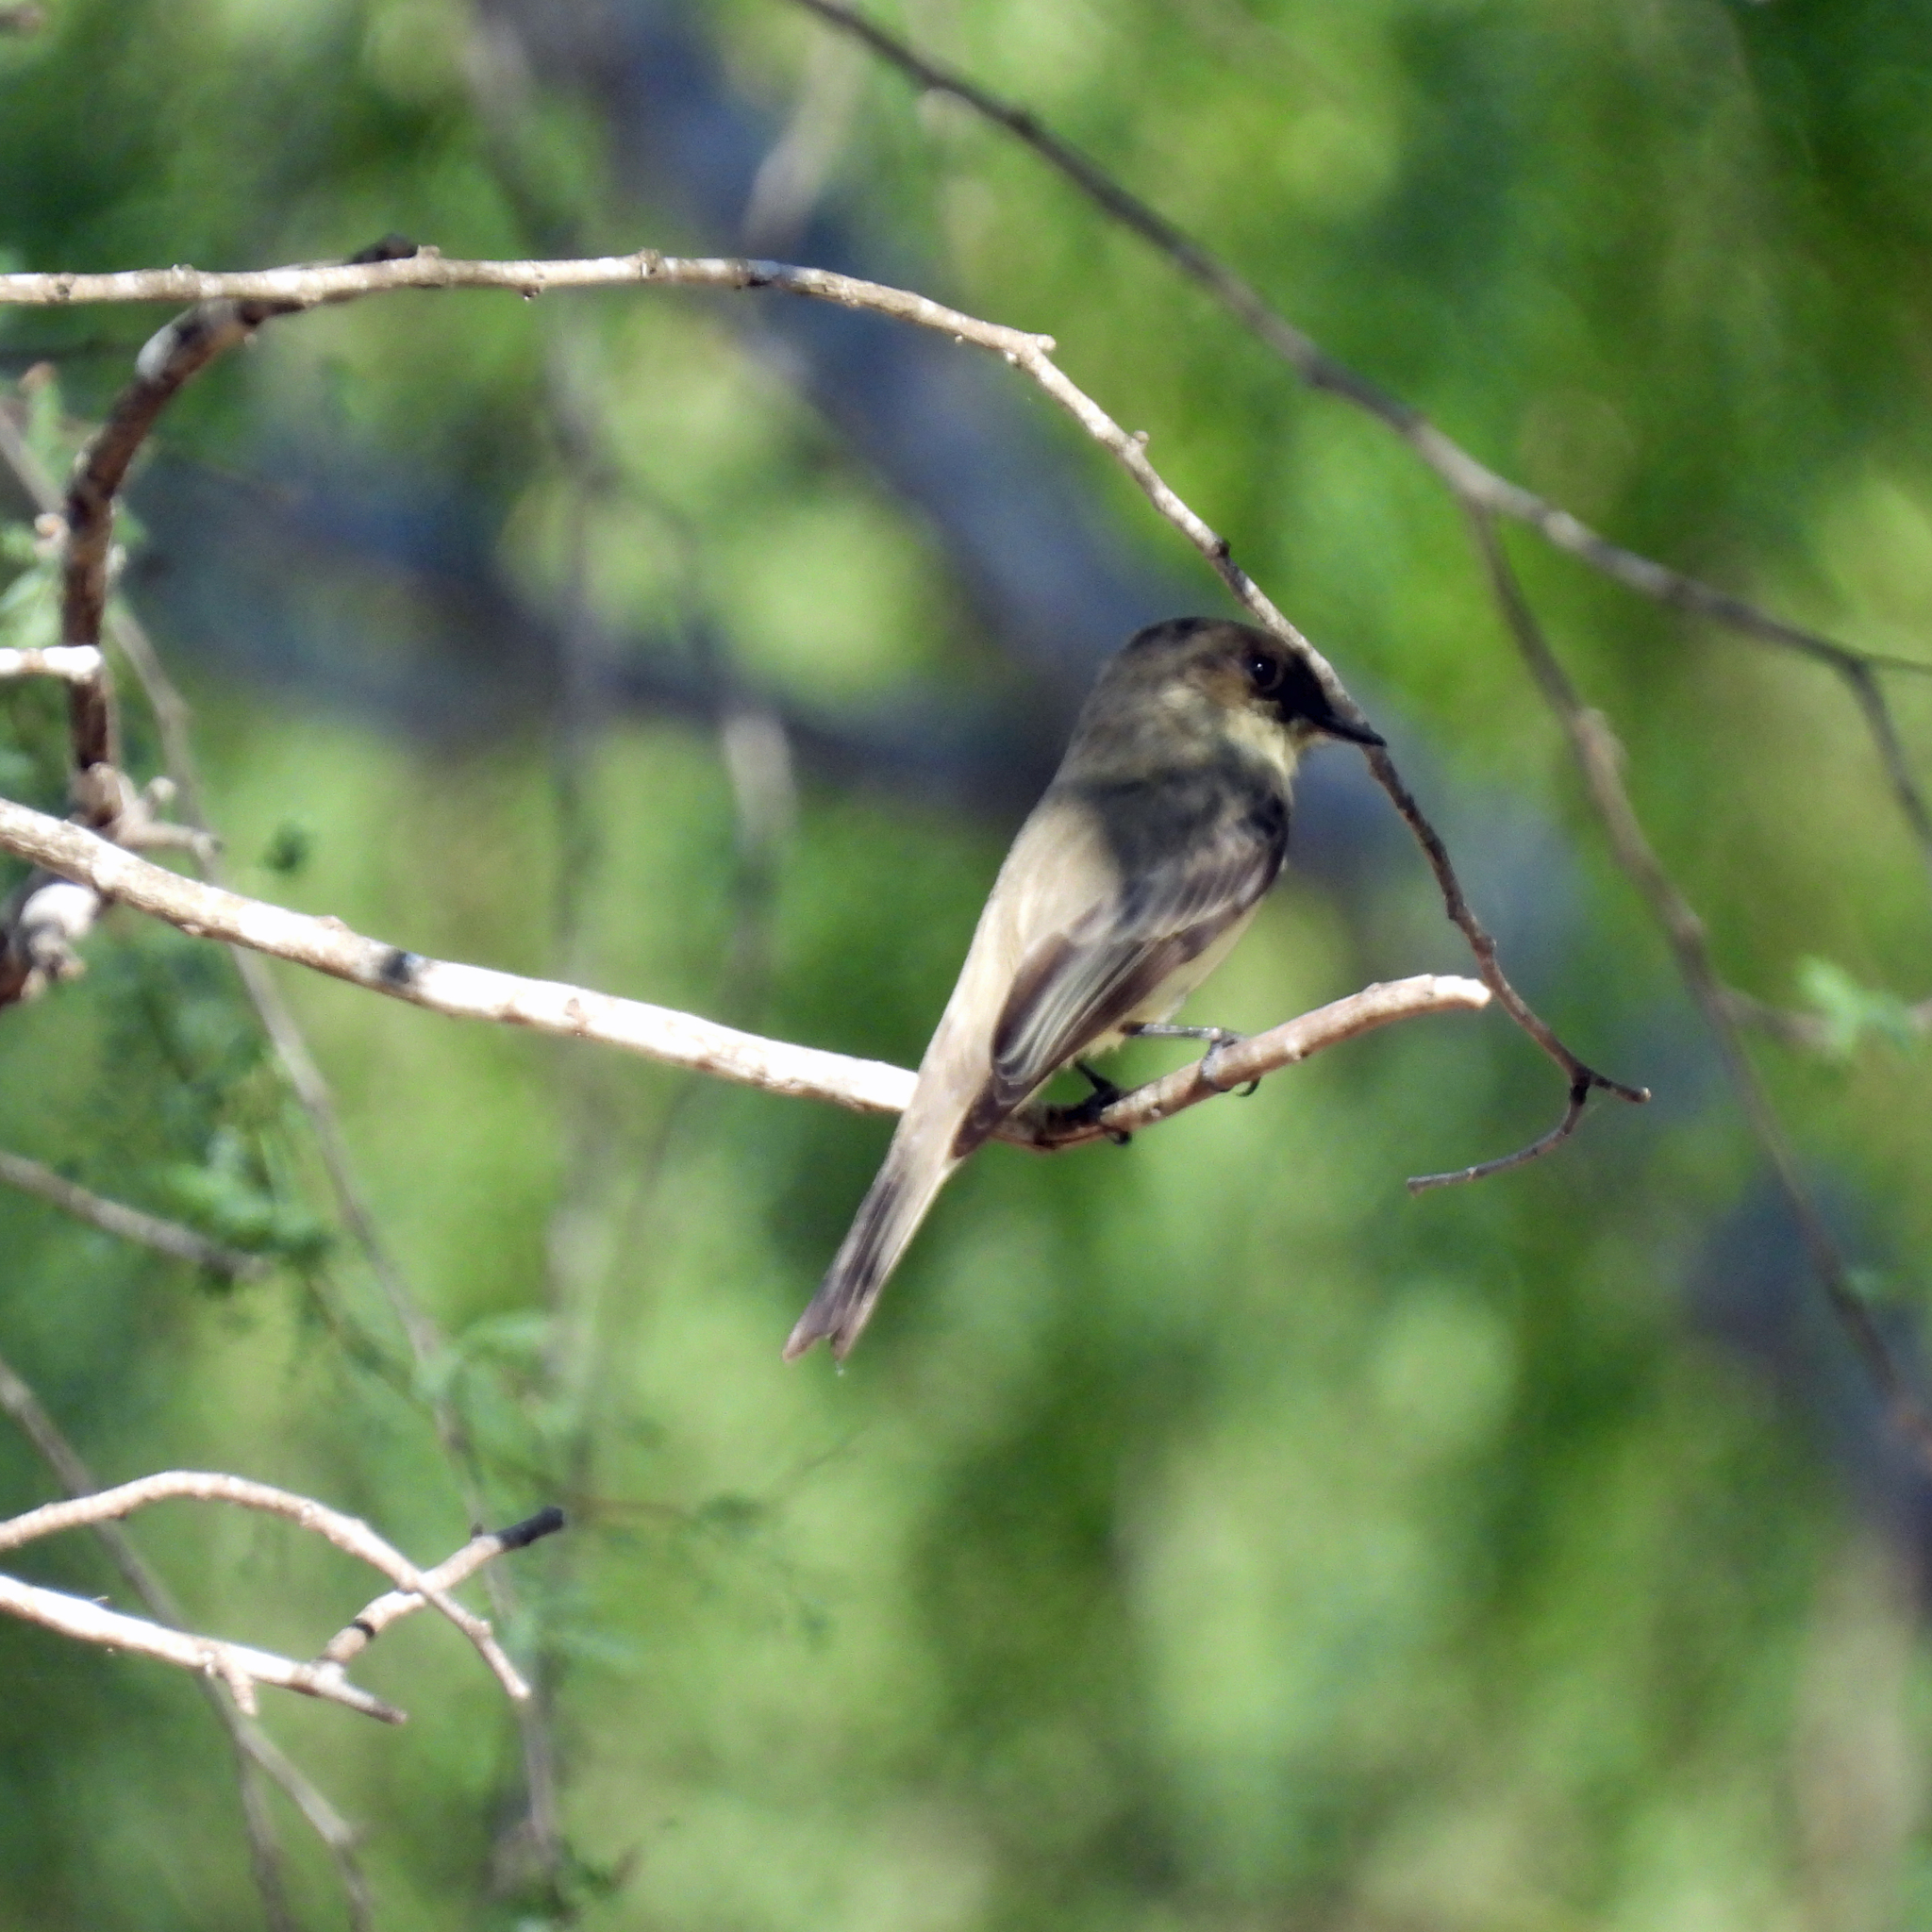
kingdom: Animalia
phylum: Chordata
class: Aves
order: Passeriformes
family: Tyrannidae
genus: Sayornis
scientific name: Sayornis phoebe
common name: Eastern phoebe
